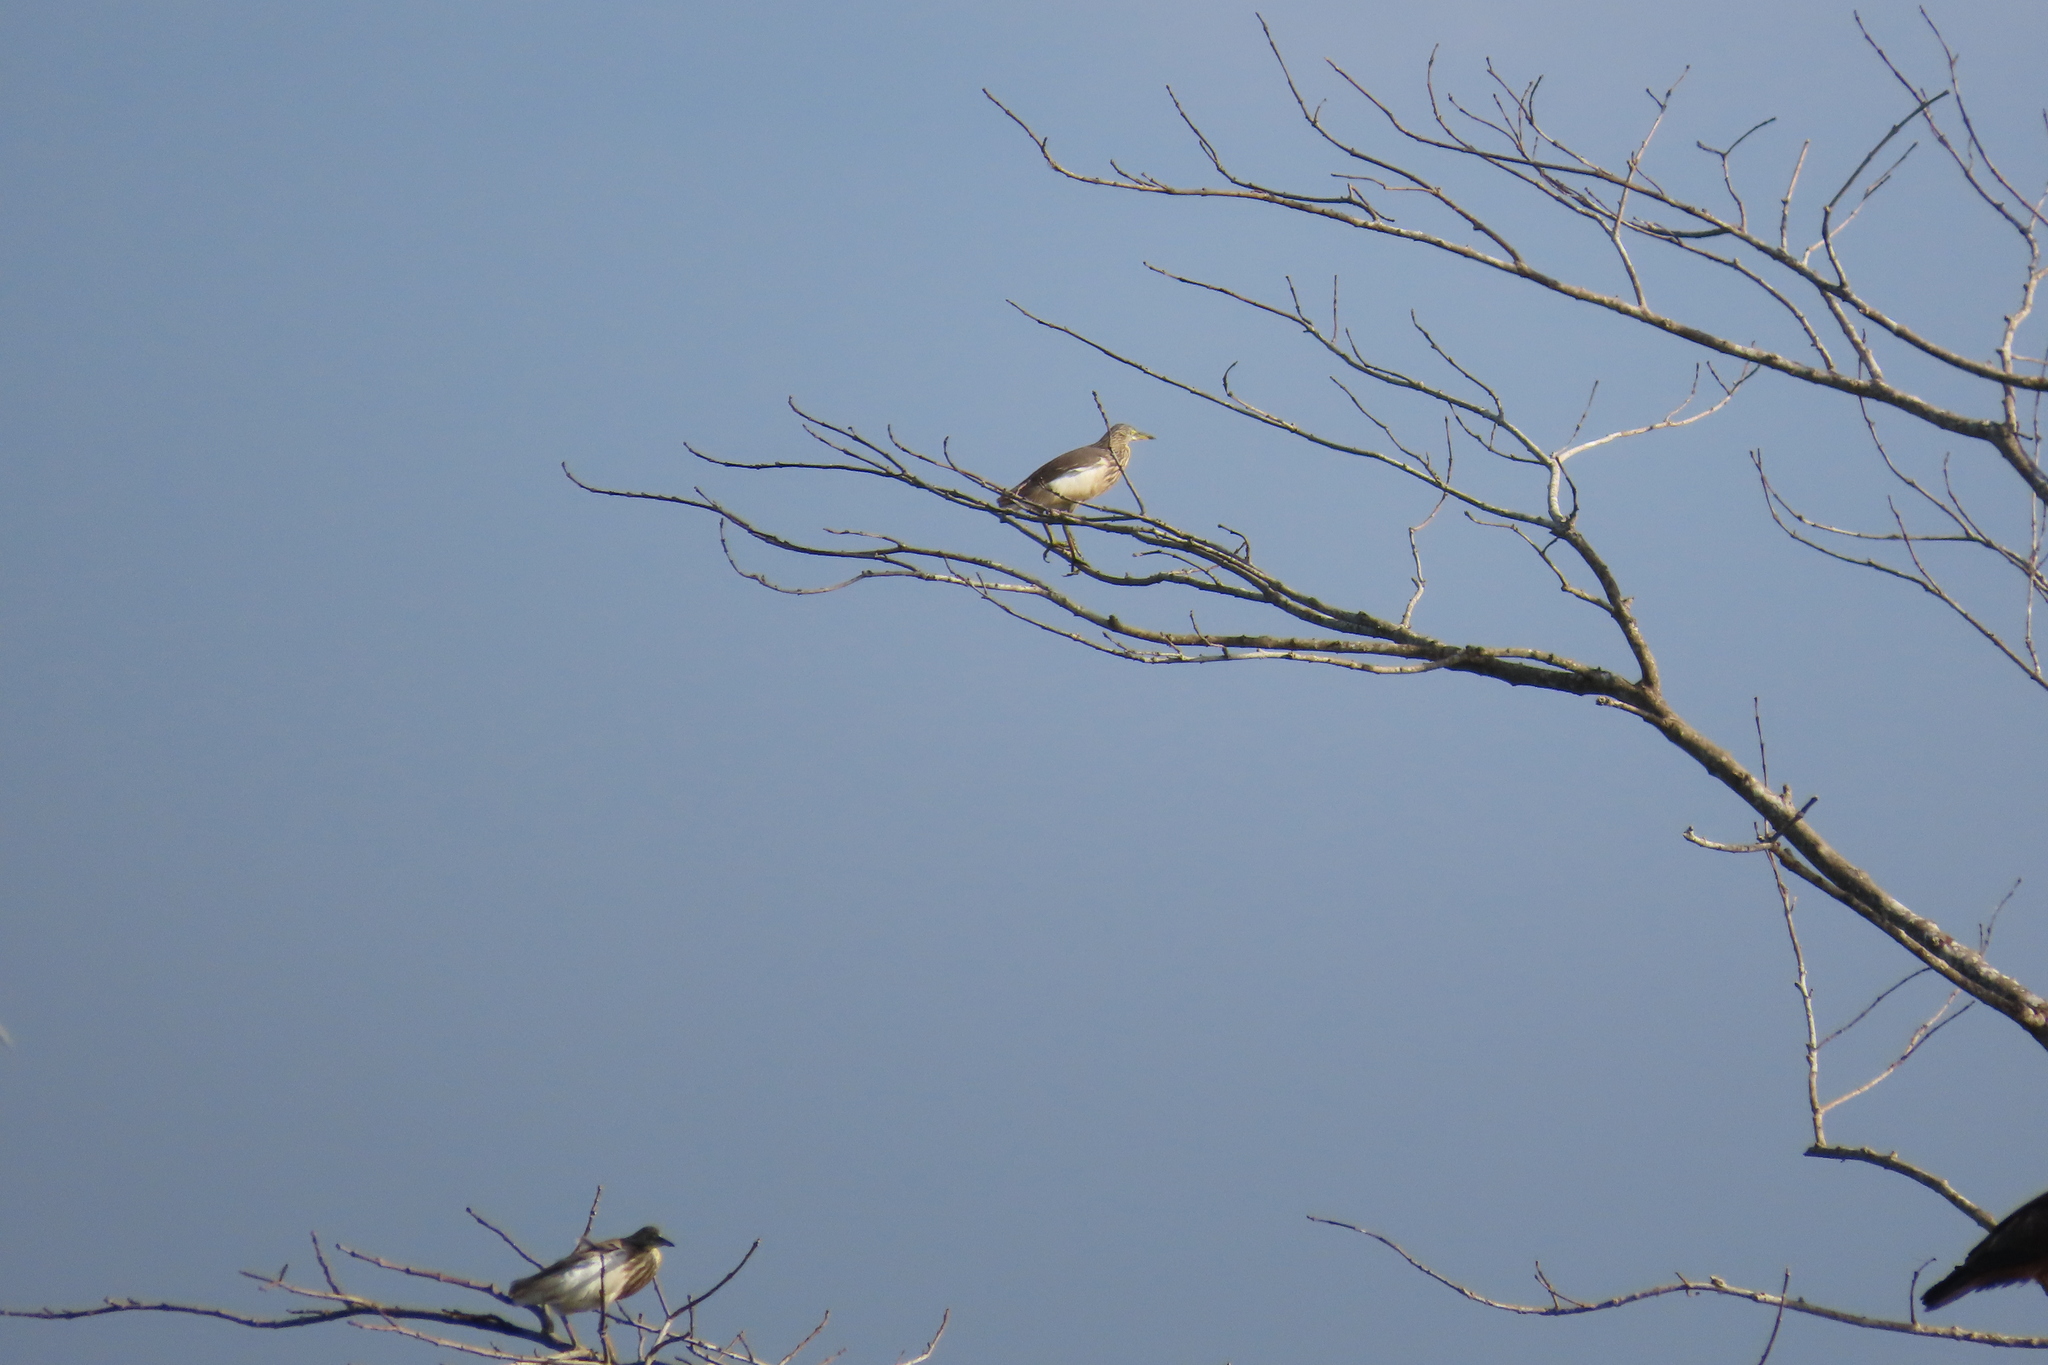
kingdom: Animalia
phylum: Chordata
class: Aves
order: Pelecaniformes
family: Ardeidae
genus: Ardeola
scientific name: Ardeola grayii
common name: Indian pond heron
